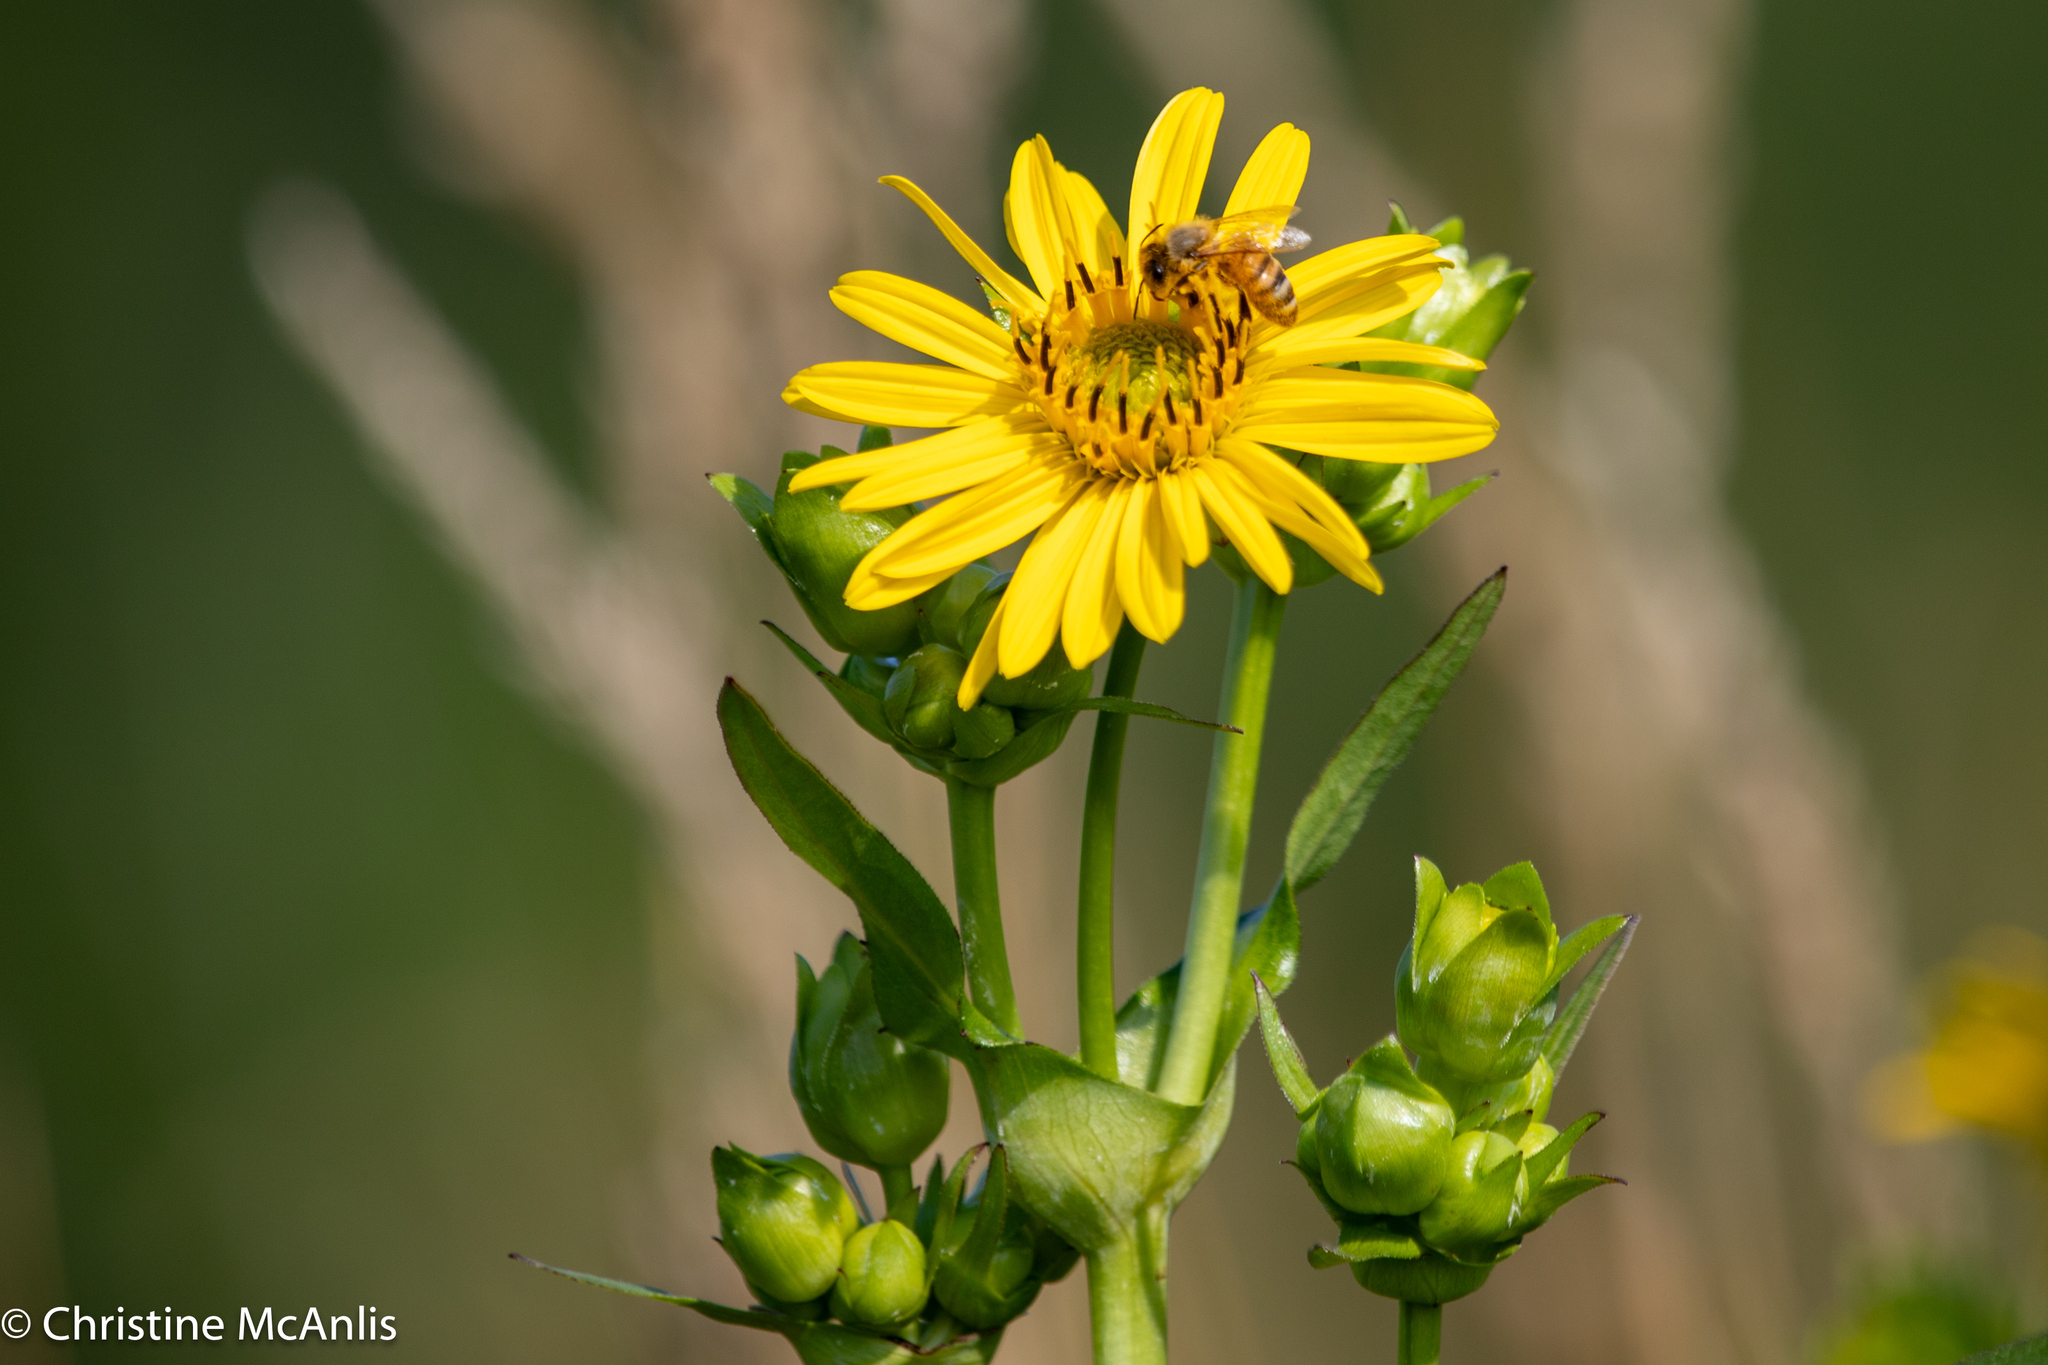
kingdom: Animalia
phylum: Arthropoda
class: Insecta
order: Hymenoptera
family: Apidae
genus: Apis
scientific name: Apis mellifera
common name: Honey bee
